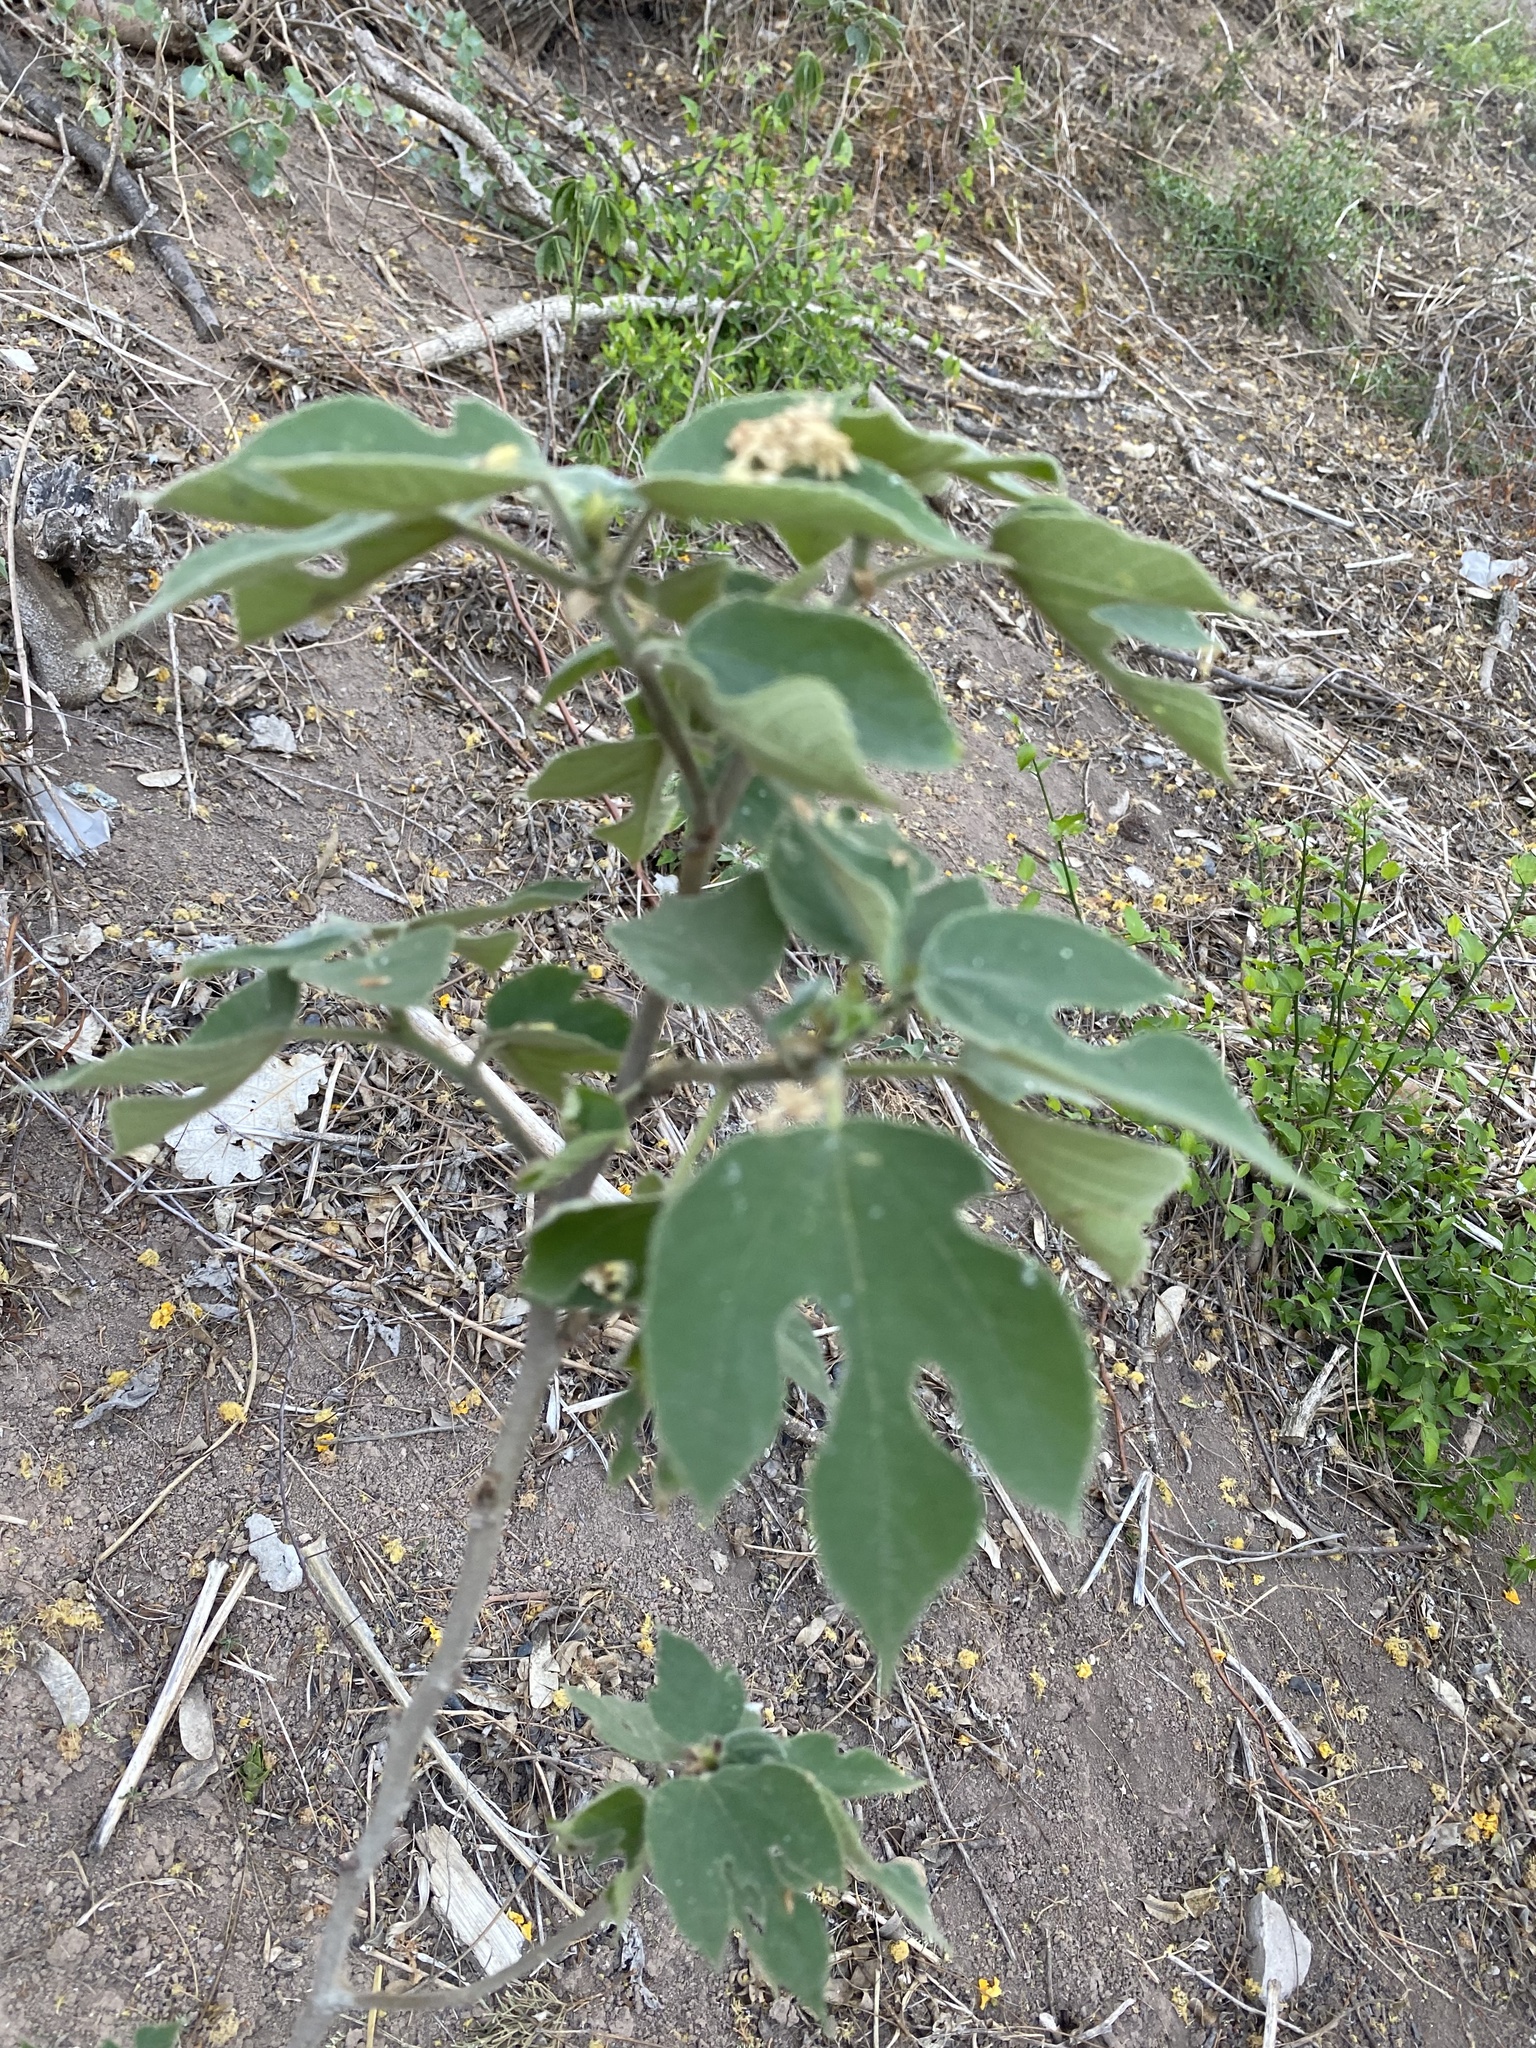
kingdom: Plantae
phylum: Tracheophyta
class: Magnoliopsida
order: Rosales
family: Moraceae
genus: Broussonetia
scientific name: Broussonetia papyrifera
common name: Paper mulberry
